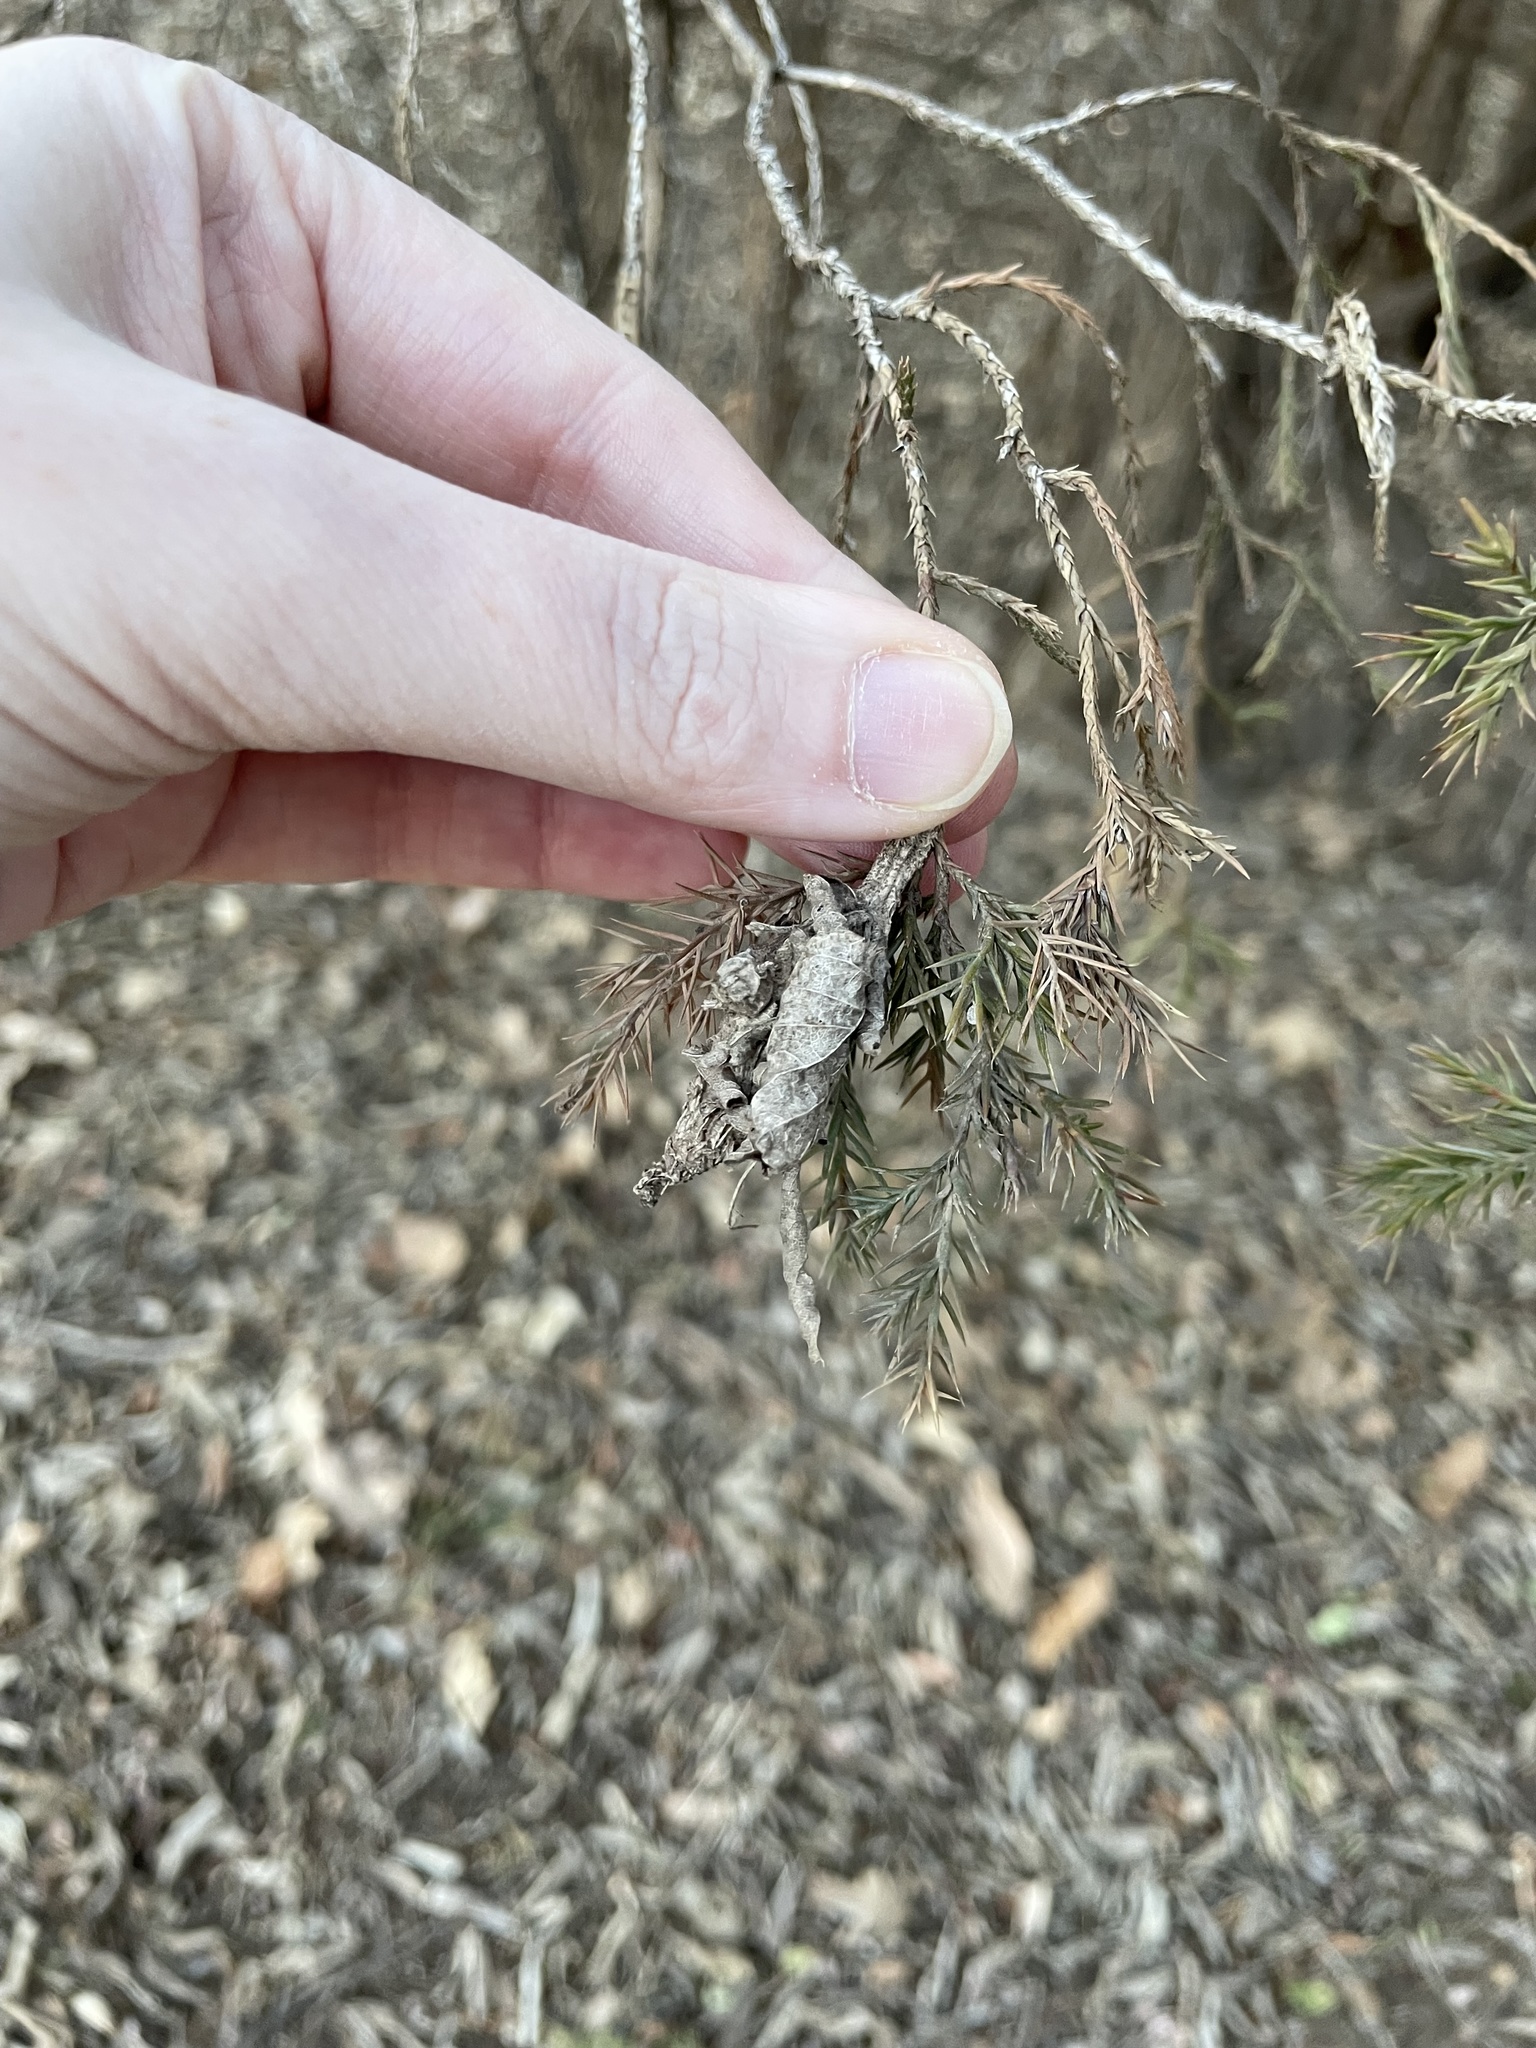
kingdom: Animalia
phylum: Arthropoda
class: Insecta
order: Lepidoptera
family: Psychidae
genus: Thyridopteryx
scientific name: Thyridopteryx ephemeraeformis
